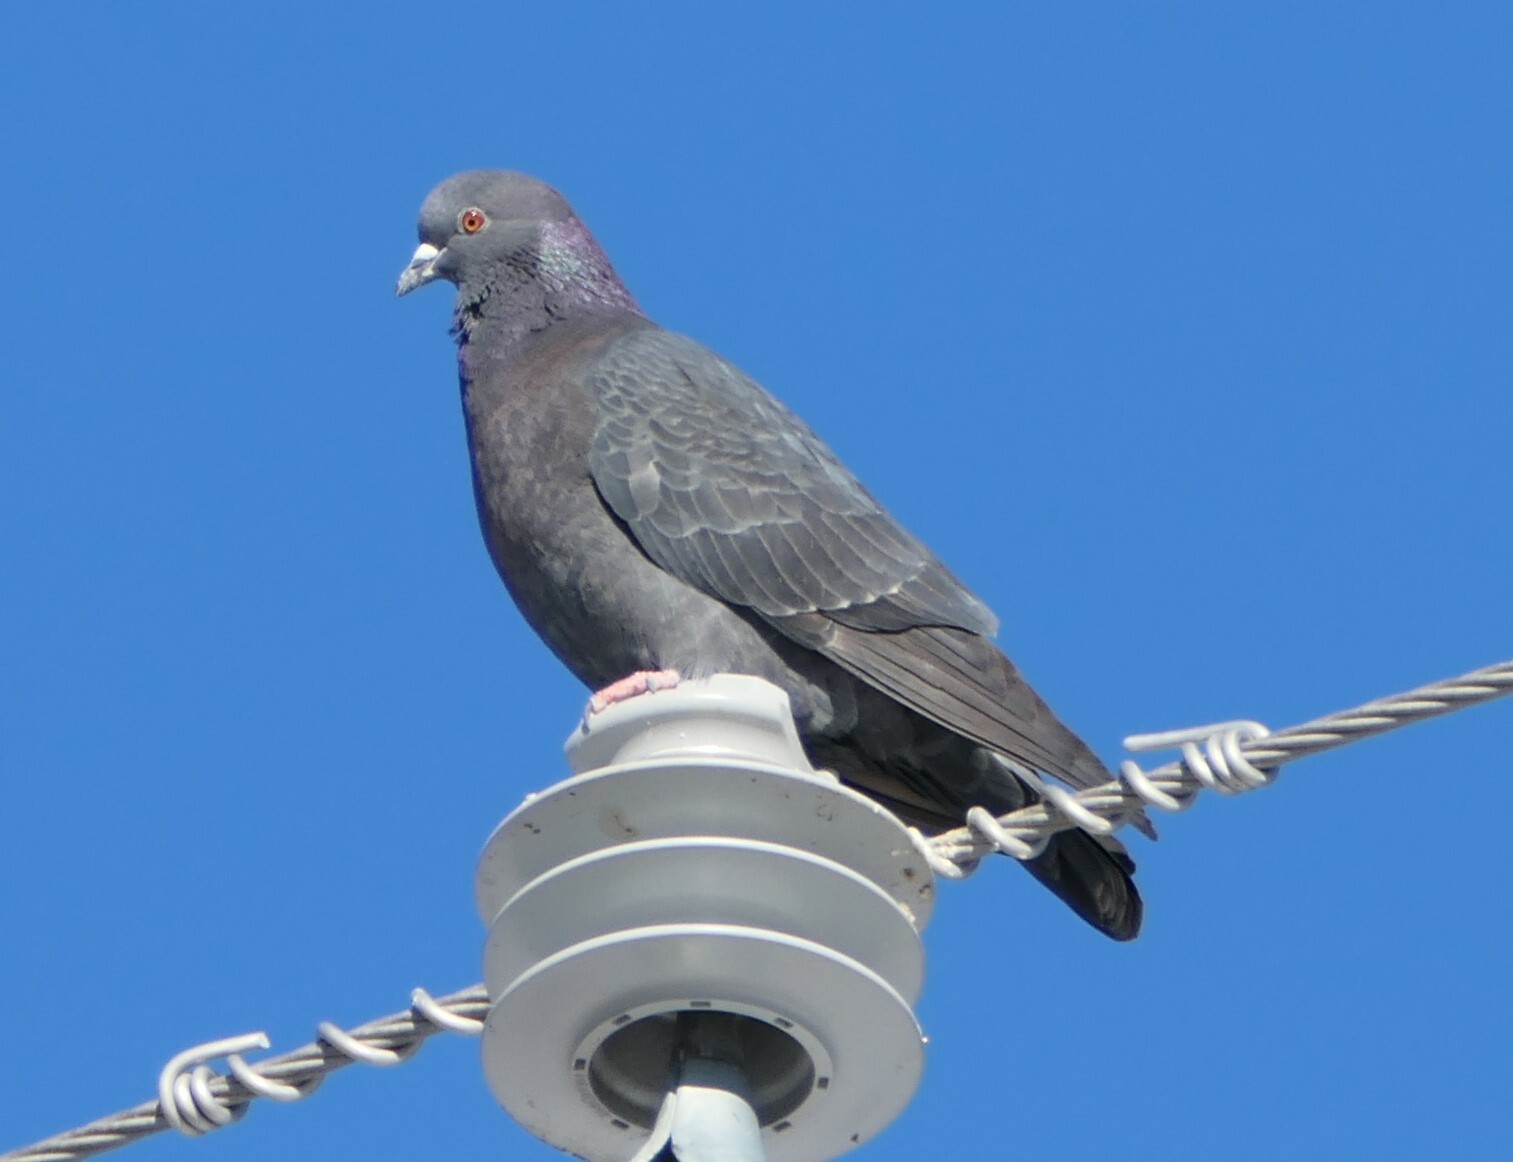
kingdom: Animalia
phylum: Chordata
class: Aves
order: Columbiformes
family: Columbidae
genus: Columba
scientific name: Columba livia
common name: Rock pigeon
